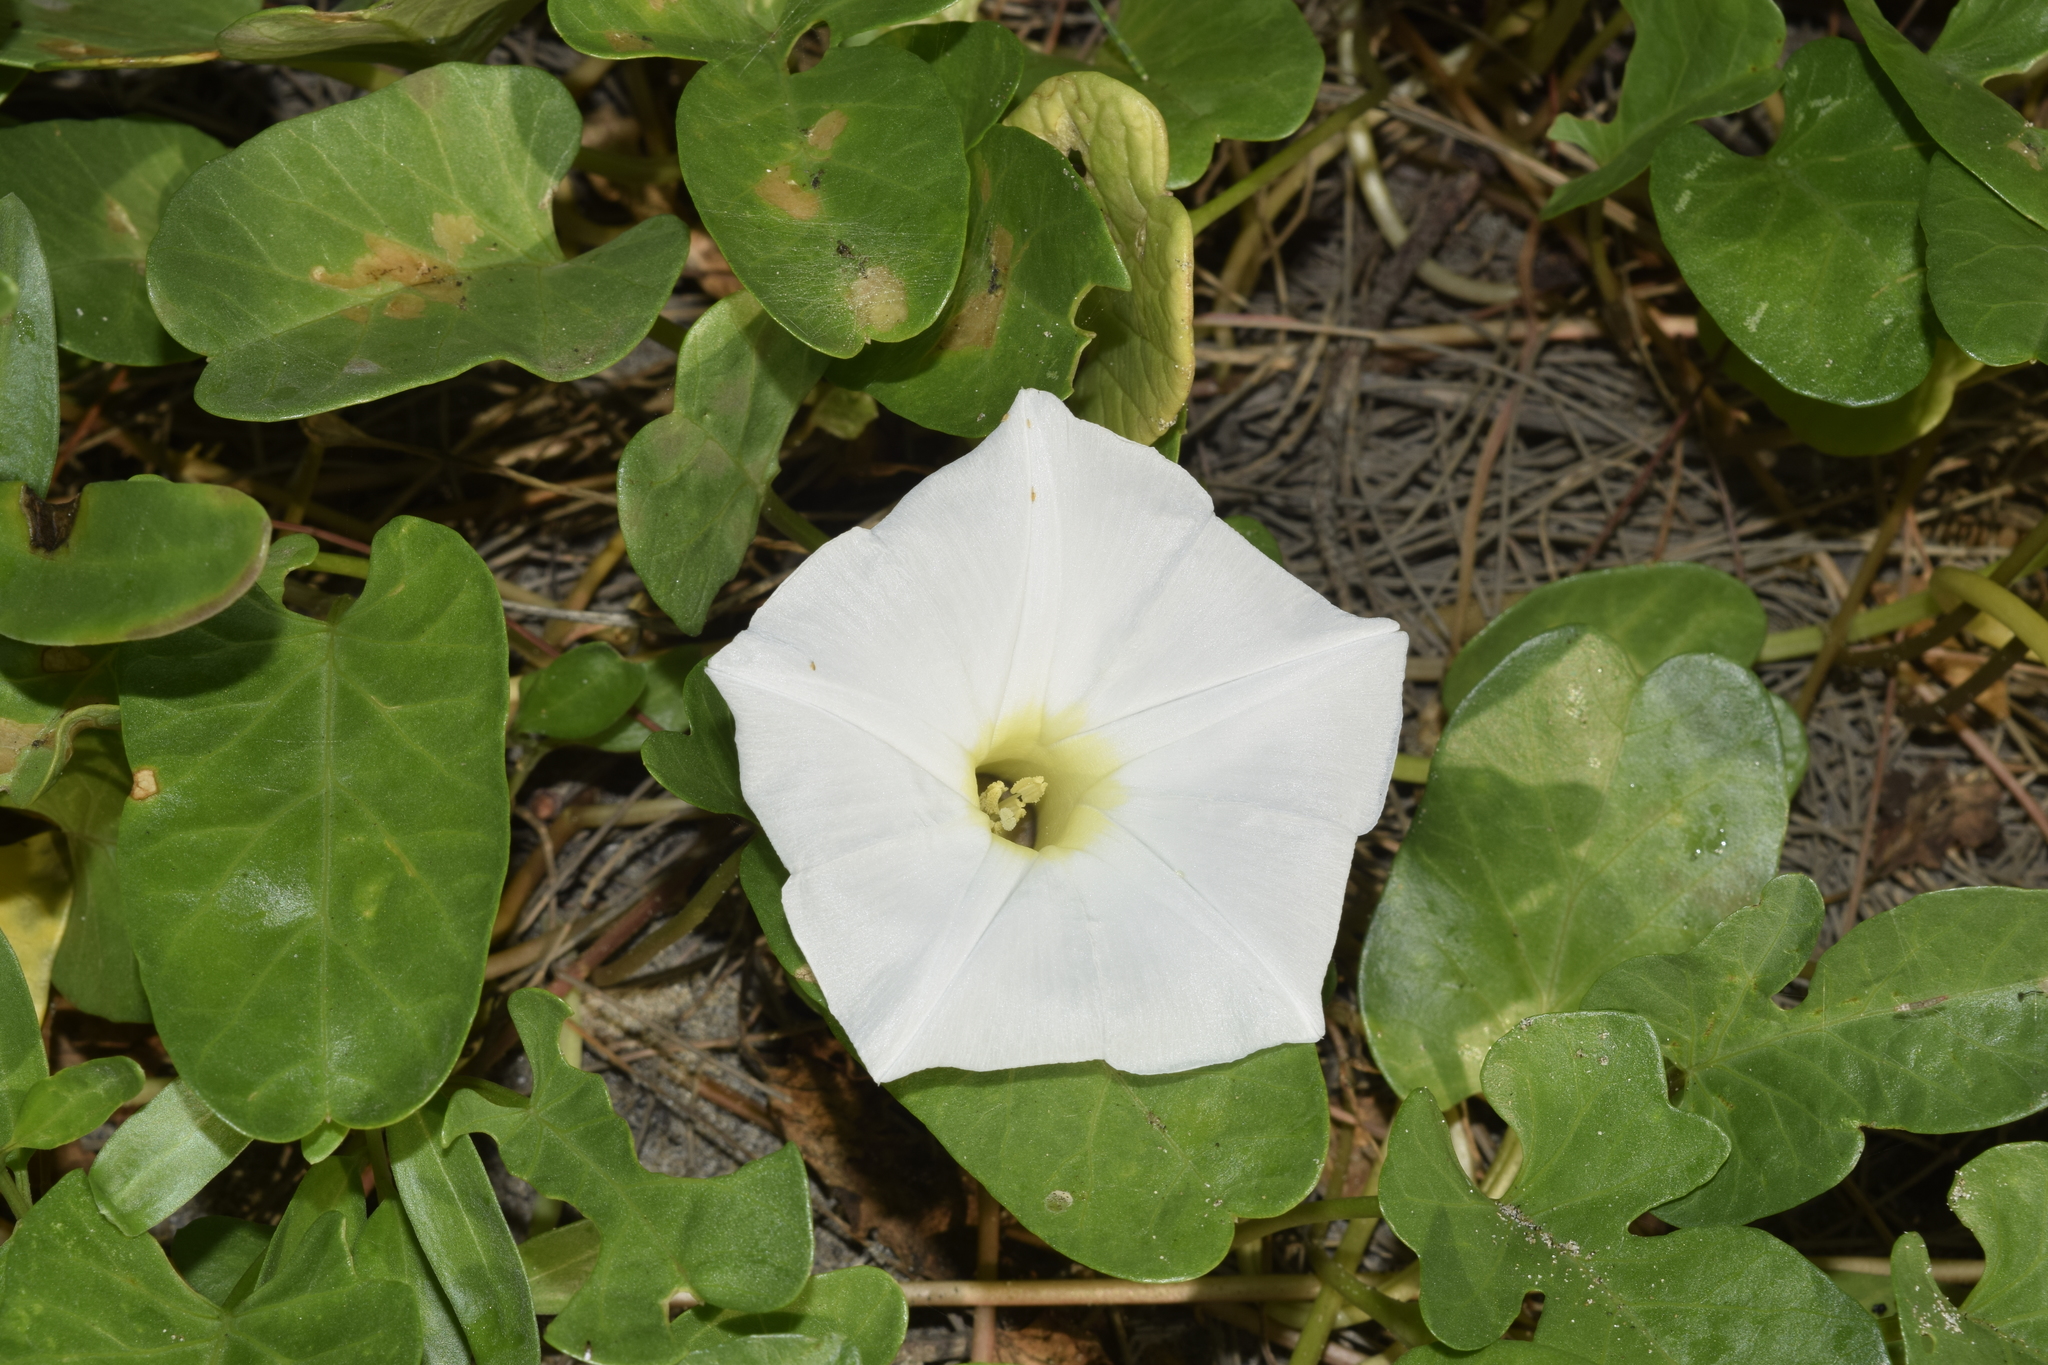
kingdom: Plantae
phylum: Tracheophyta
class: Magnoliopsida
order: Solanales
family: Convolvulaceae
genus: Ipomoea
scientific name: Ipomoea imperati
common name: Fiddle-leaf morning-glory
